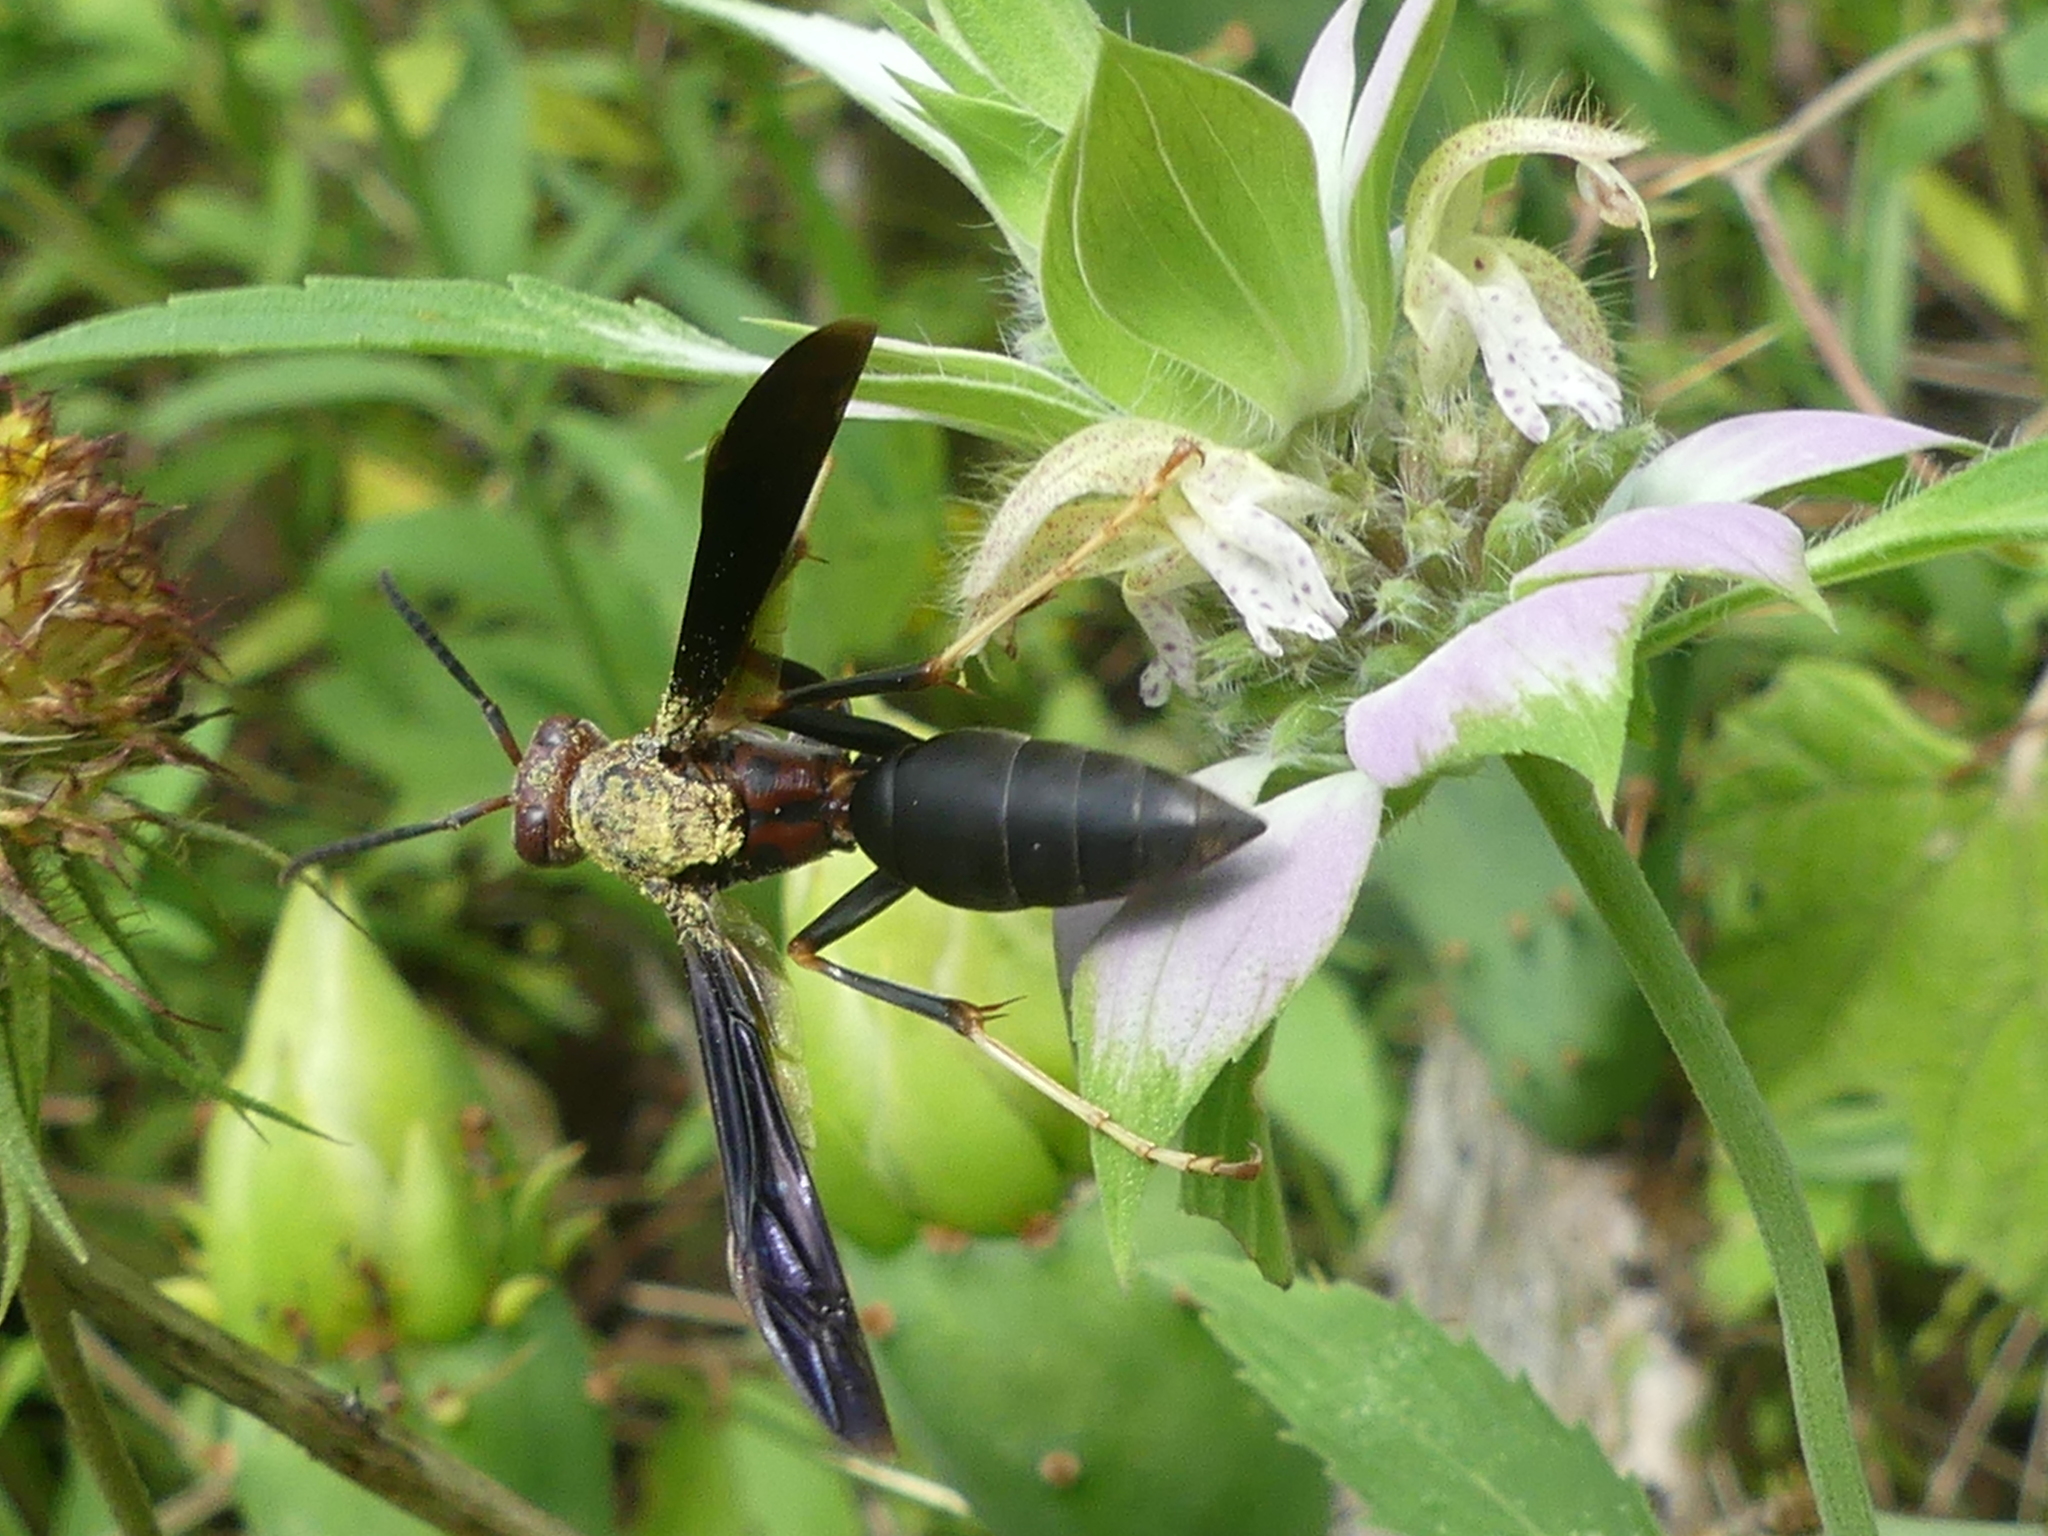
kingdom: Animalia
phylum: Arthropoda
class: Insecta
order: Hymenoptera
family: Eumenidae
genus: Polistes
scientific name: Polistes metricus
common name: Metric paper wasp
